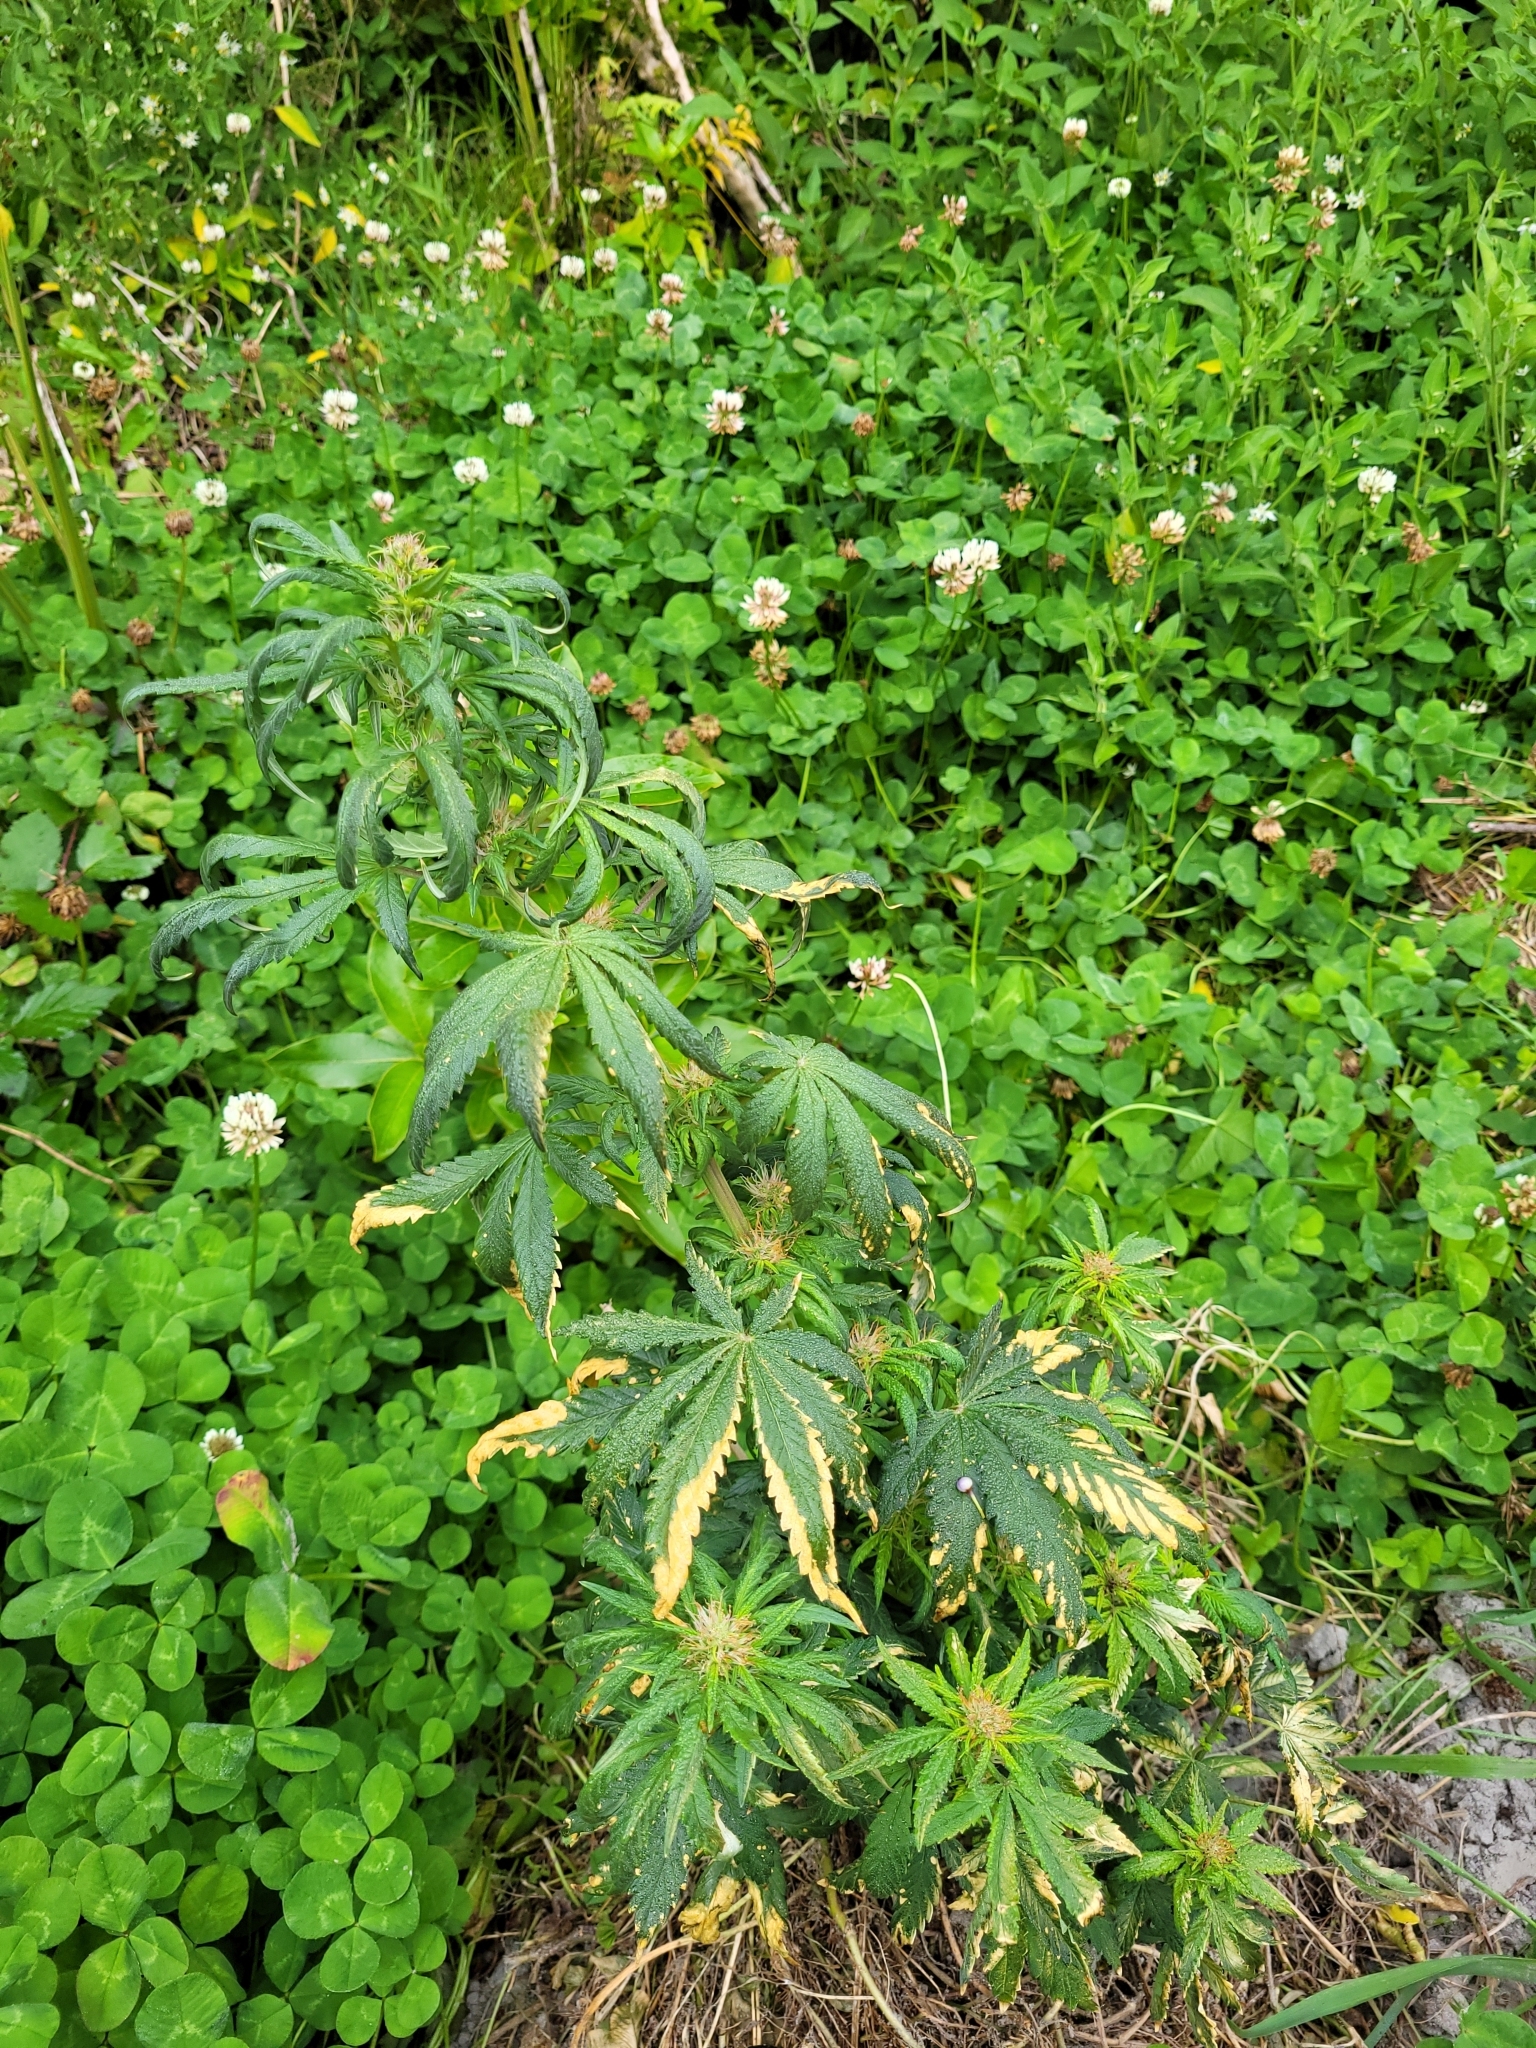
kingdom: Plantae
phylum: Tracheophyta
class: Magnoliopsida
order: Rosales
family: Cannabaceae
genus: Cannabis
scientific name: Cannabis sativa
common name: Hemp
